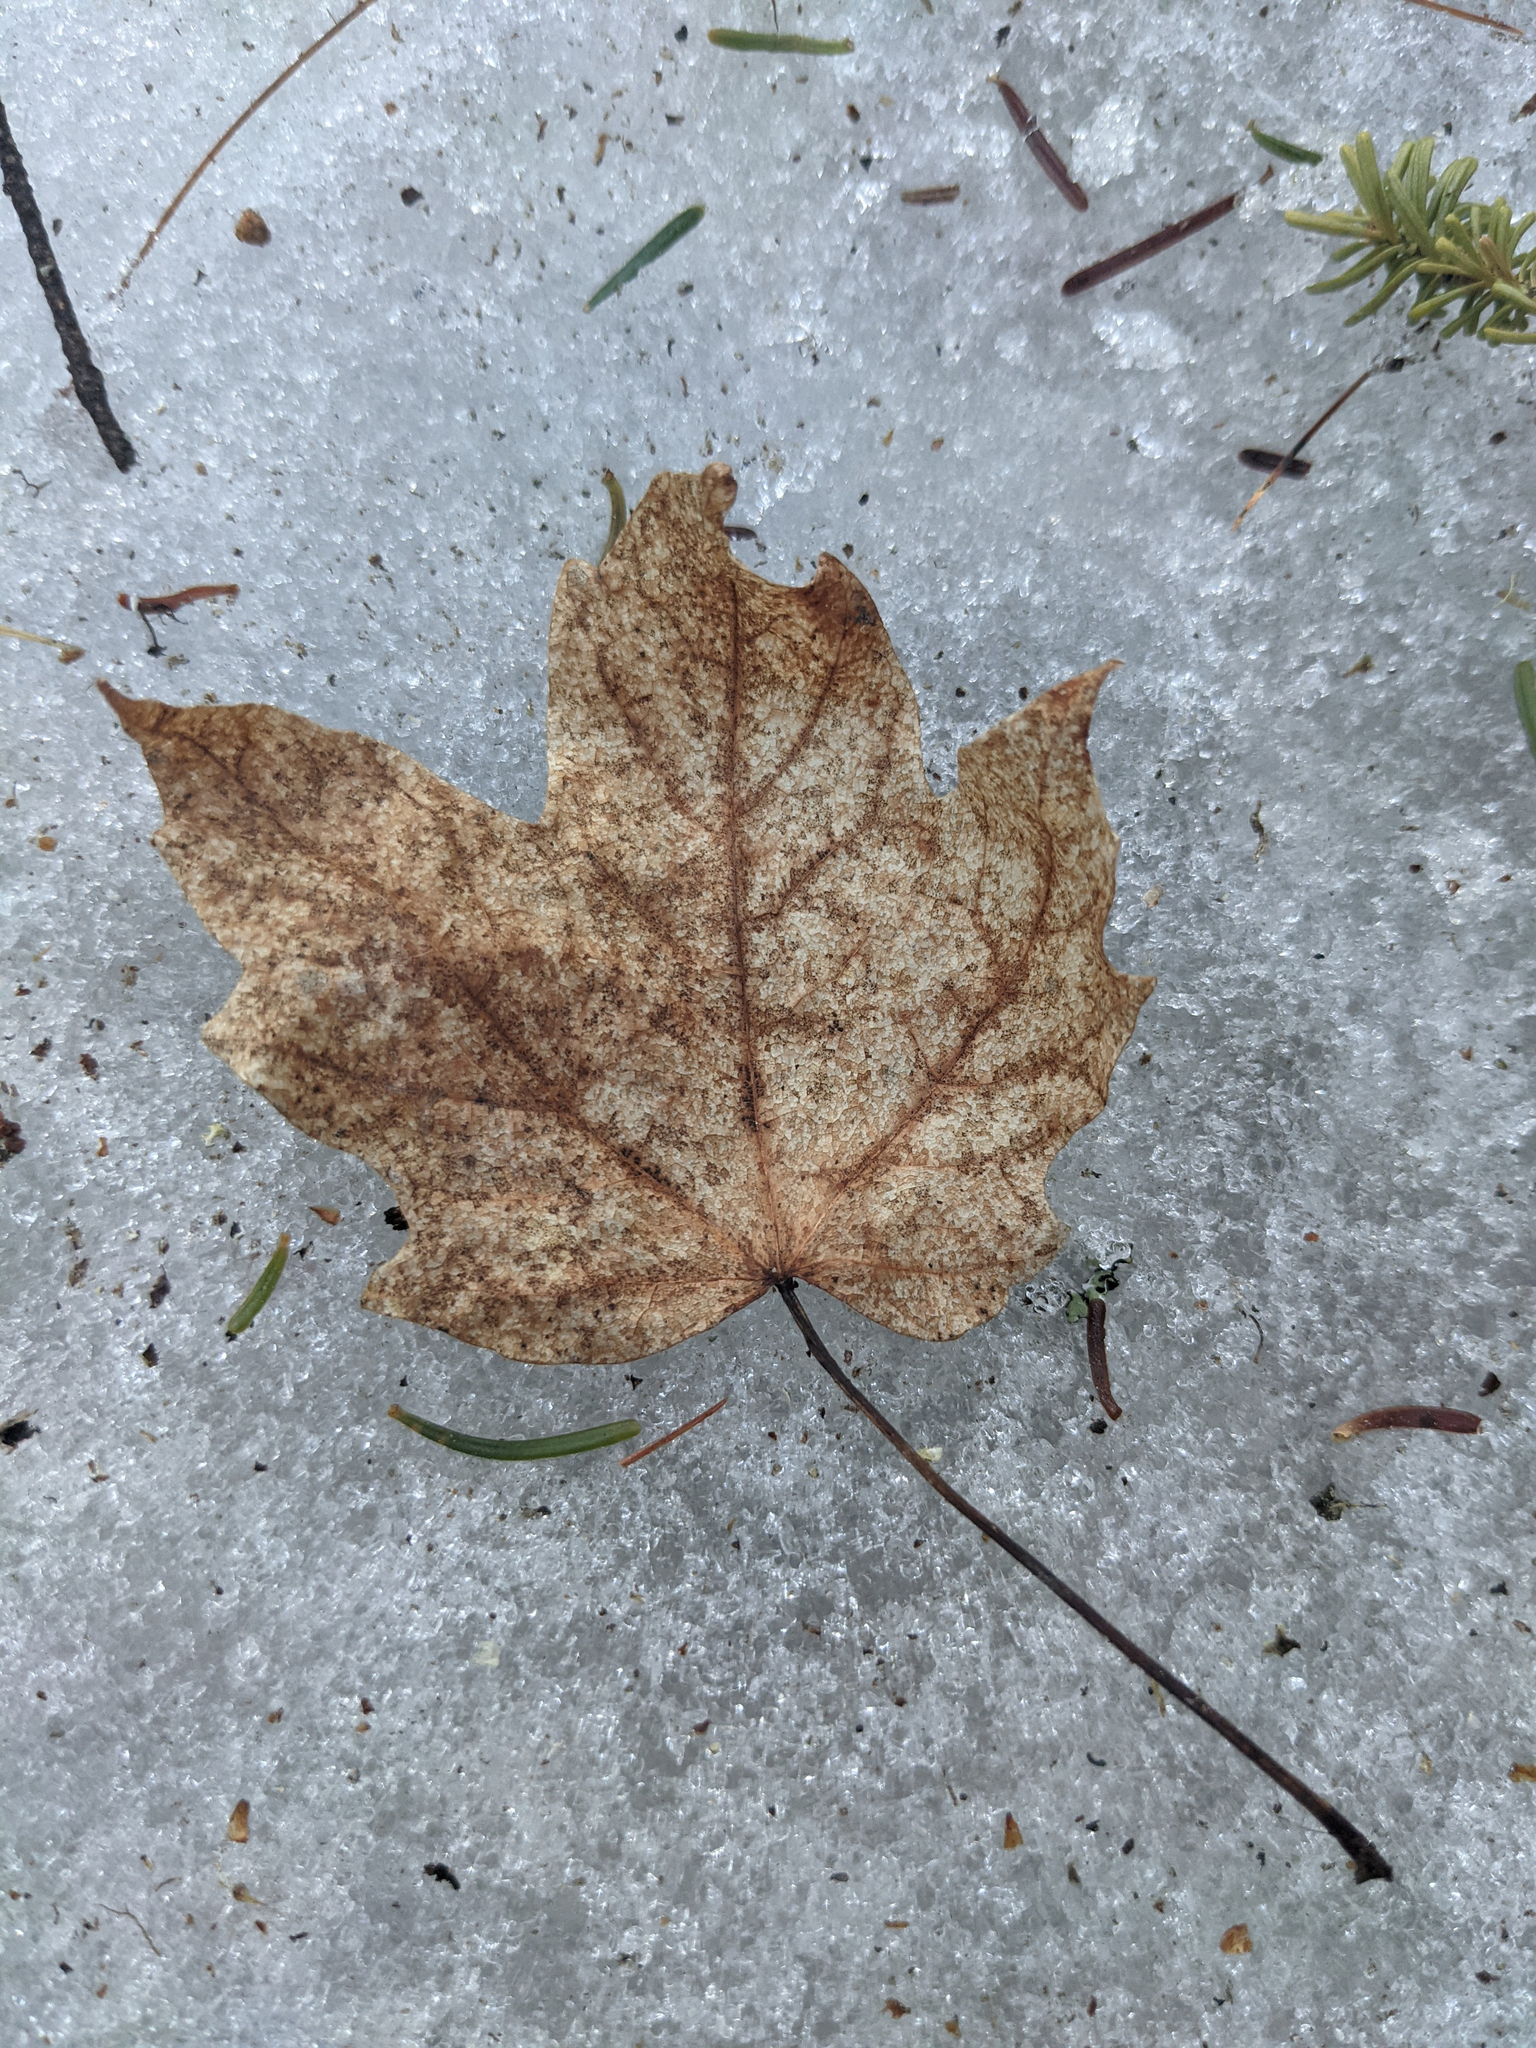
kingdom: Plantae
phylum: Tracheophyta
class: Magnoliopsida
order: Sapindales
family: Sapindaceae
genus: Acer
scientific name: Acer rubrum
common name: Red maple
